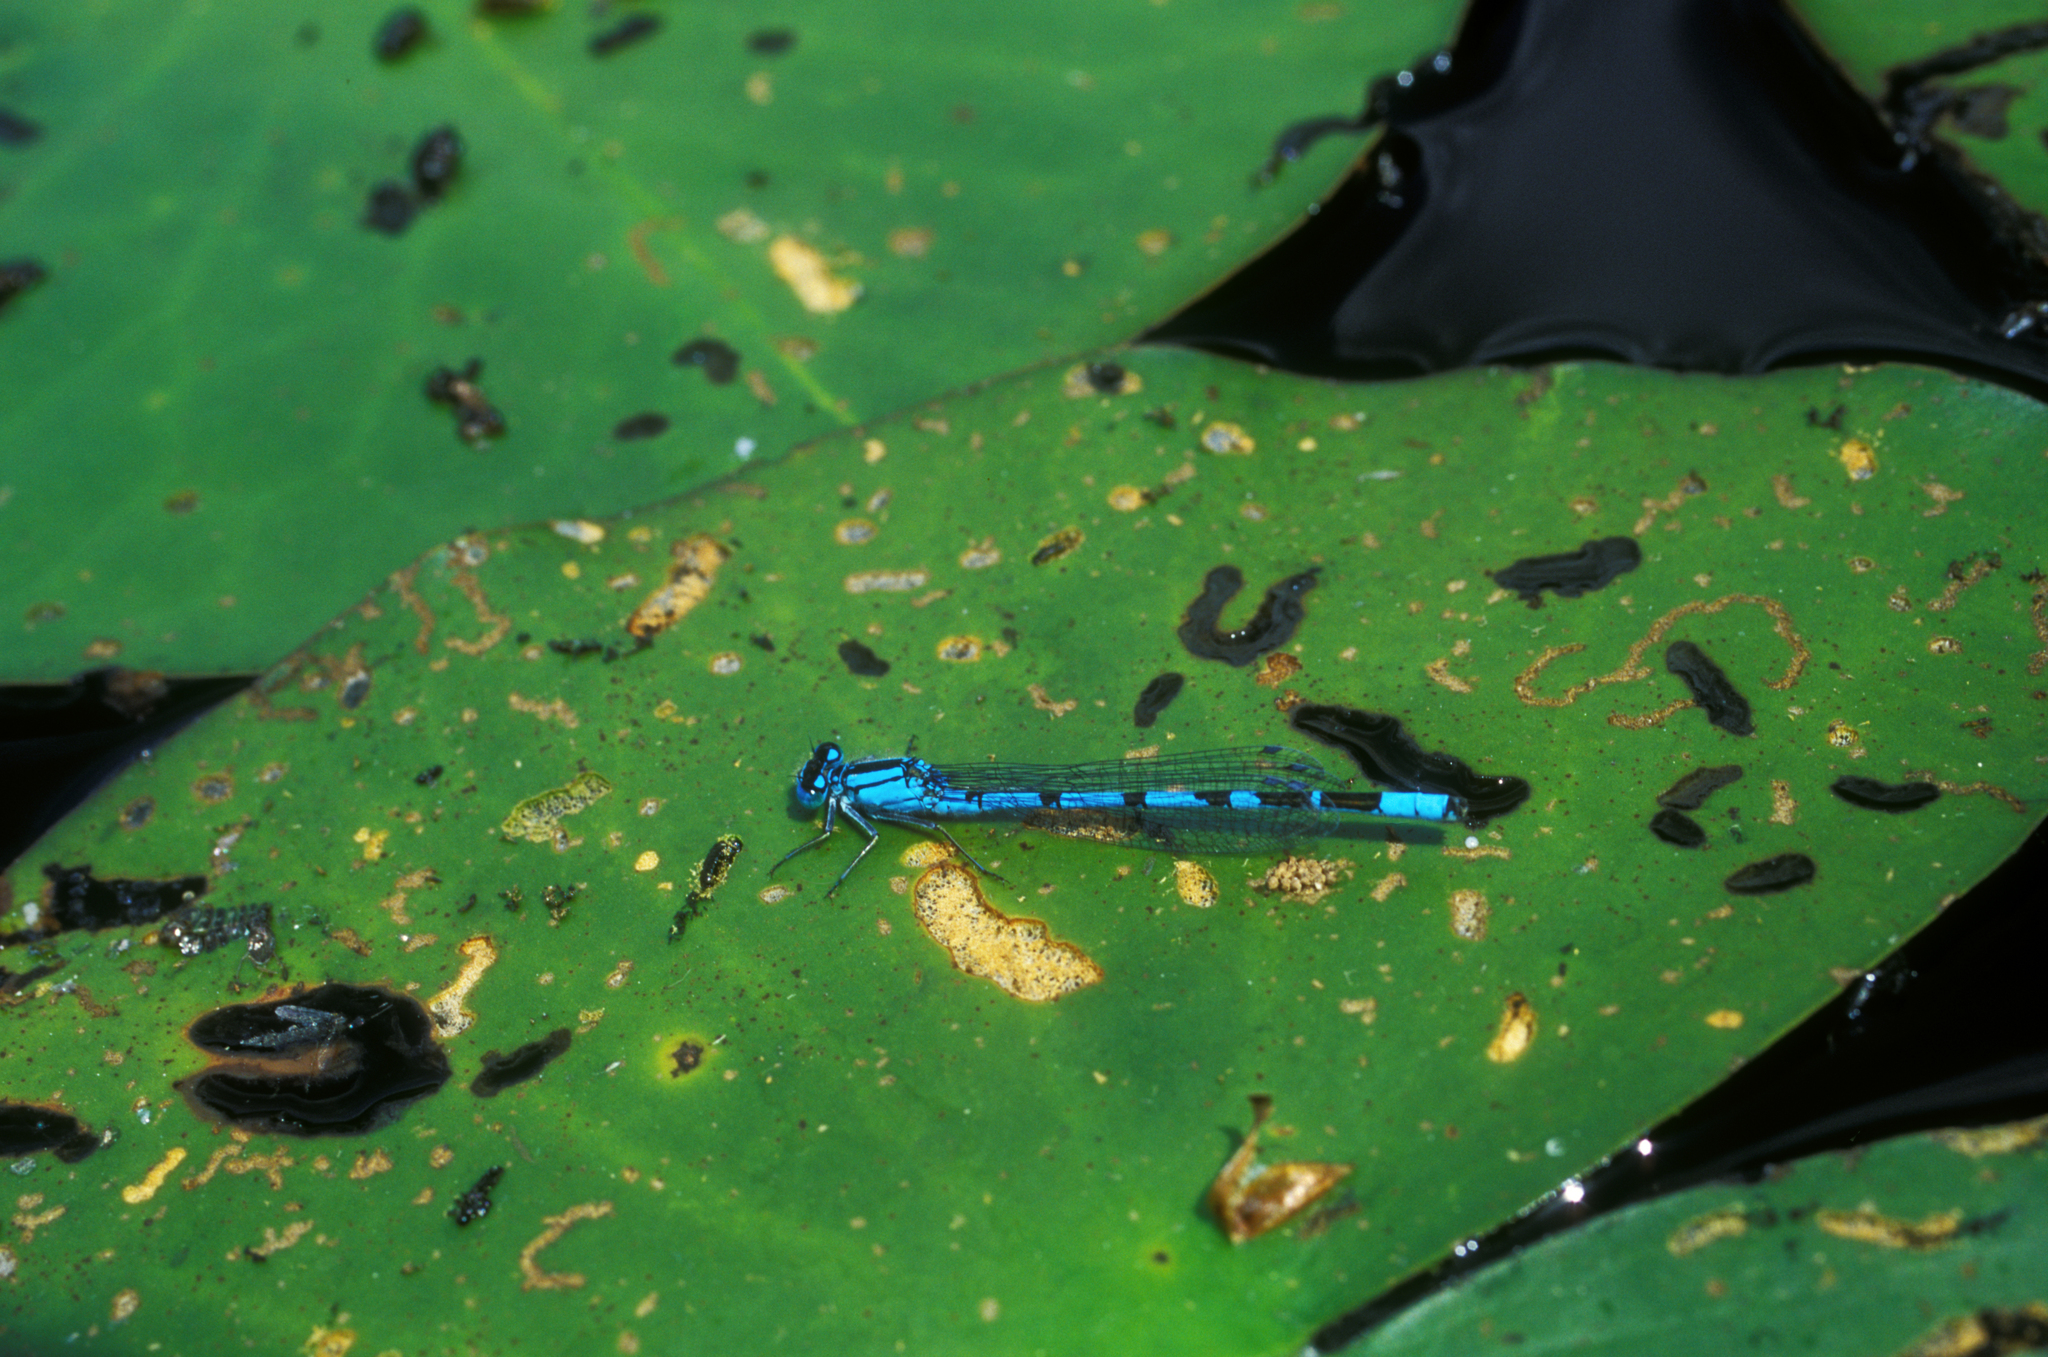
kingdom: Animalia
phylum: Arthropoda
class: Insecta
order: Odonata
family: Coenagrionidae
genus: Enallagma
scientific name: Enallagma cyathigerum
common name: Common blue damselfly
